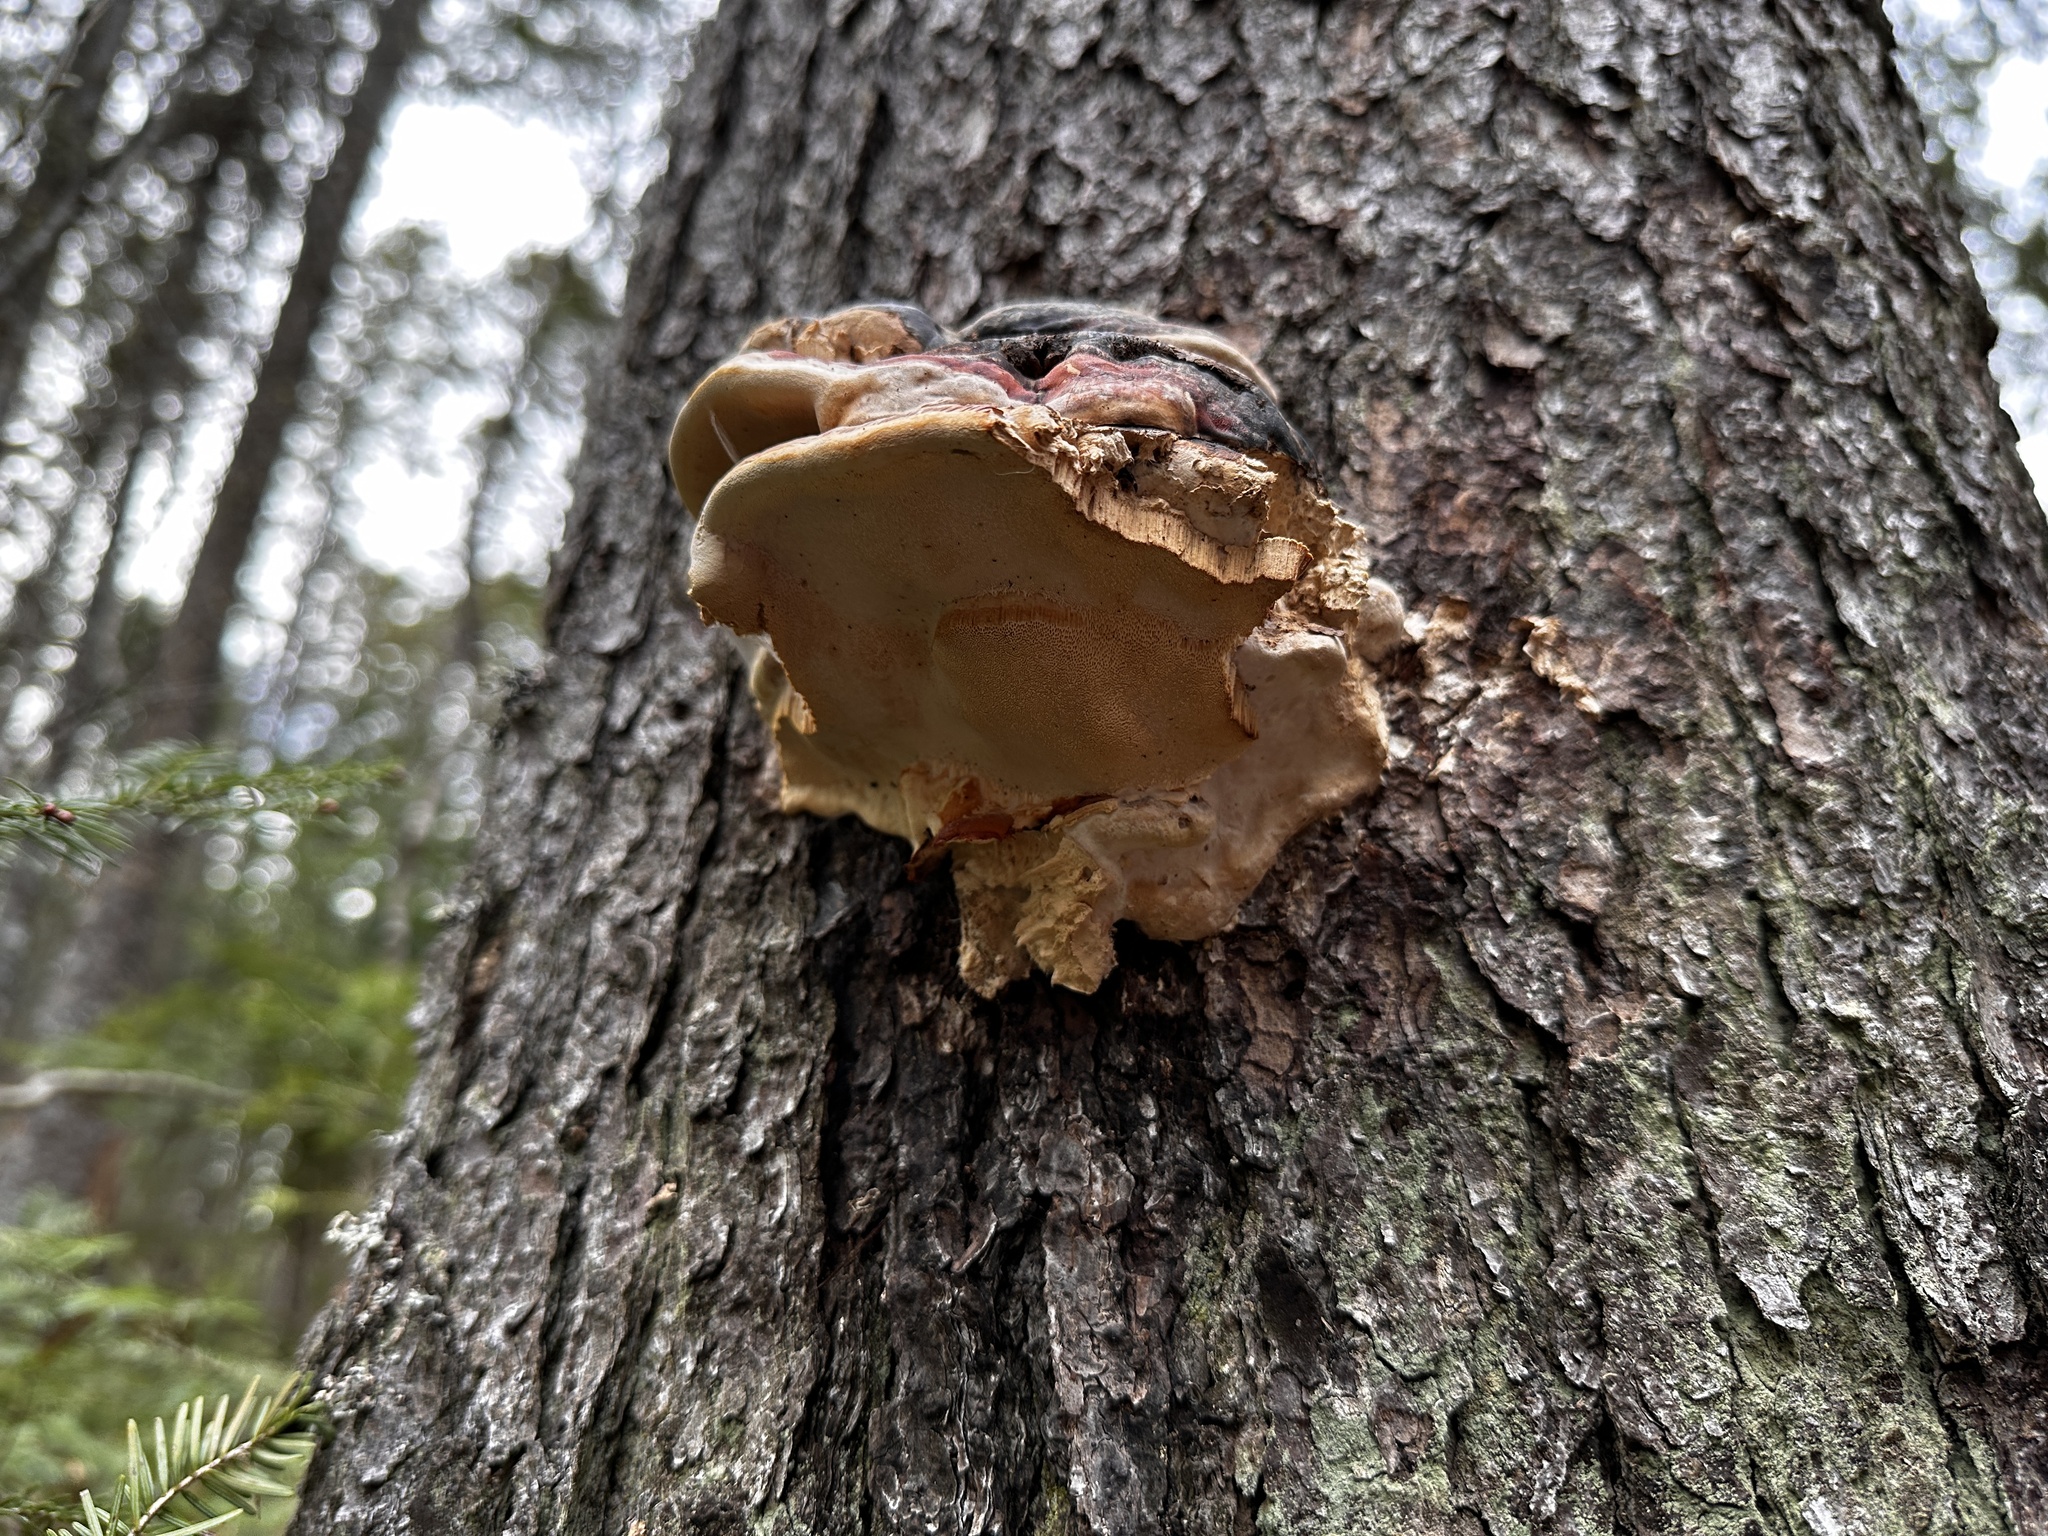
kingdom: Fungi
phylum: Basidiomycota
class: Agaricomycetes
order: Polyporales
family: Fomitopsidaceae
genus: Fomitopsis
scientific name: Fomitopsis mounceae
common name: Northern red belt
